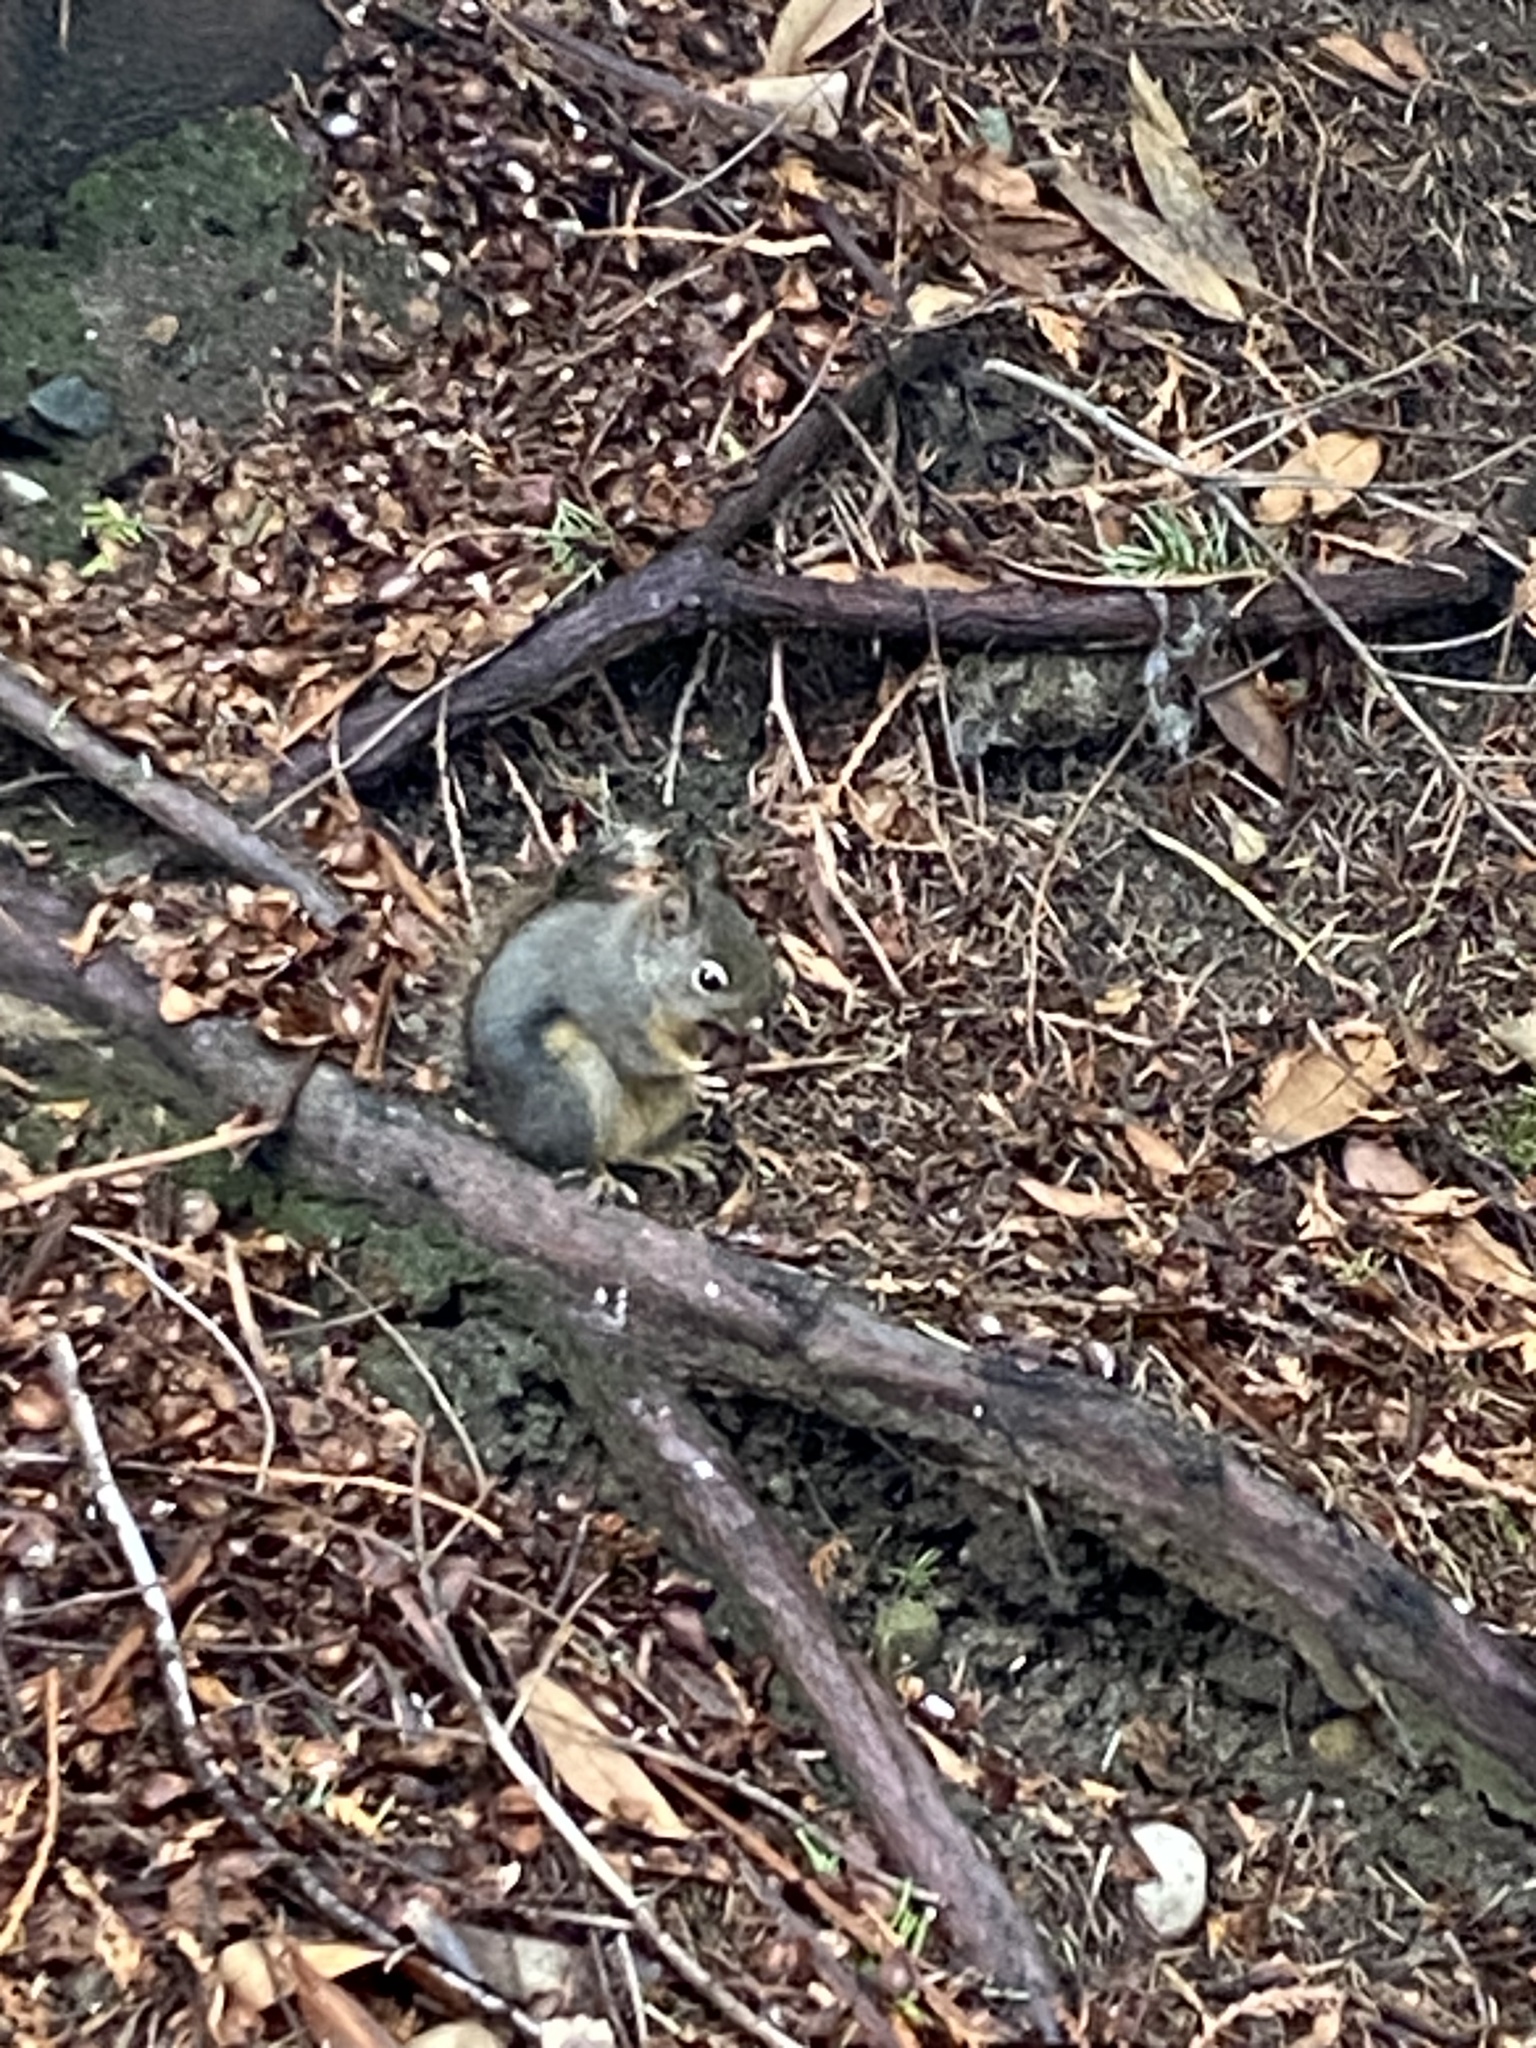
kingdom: Animalia
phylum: Chordata
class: Mammalia
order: Rodentia
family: Sciuridae
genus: Tamiasciurus
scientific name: Tamiasciurus douglasii
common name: Douglas's squirrel
